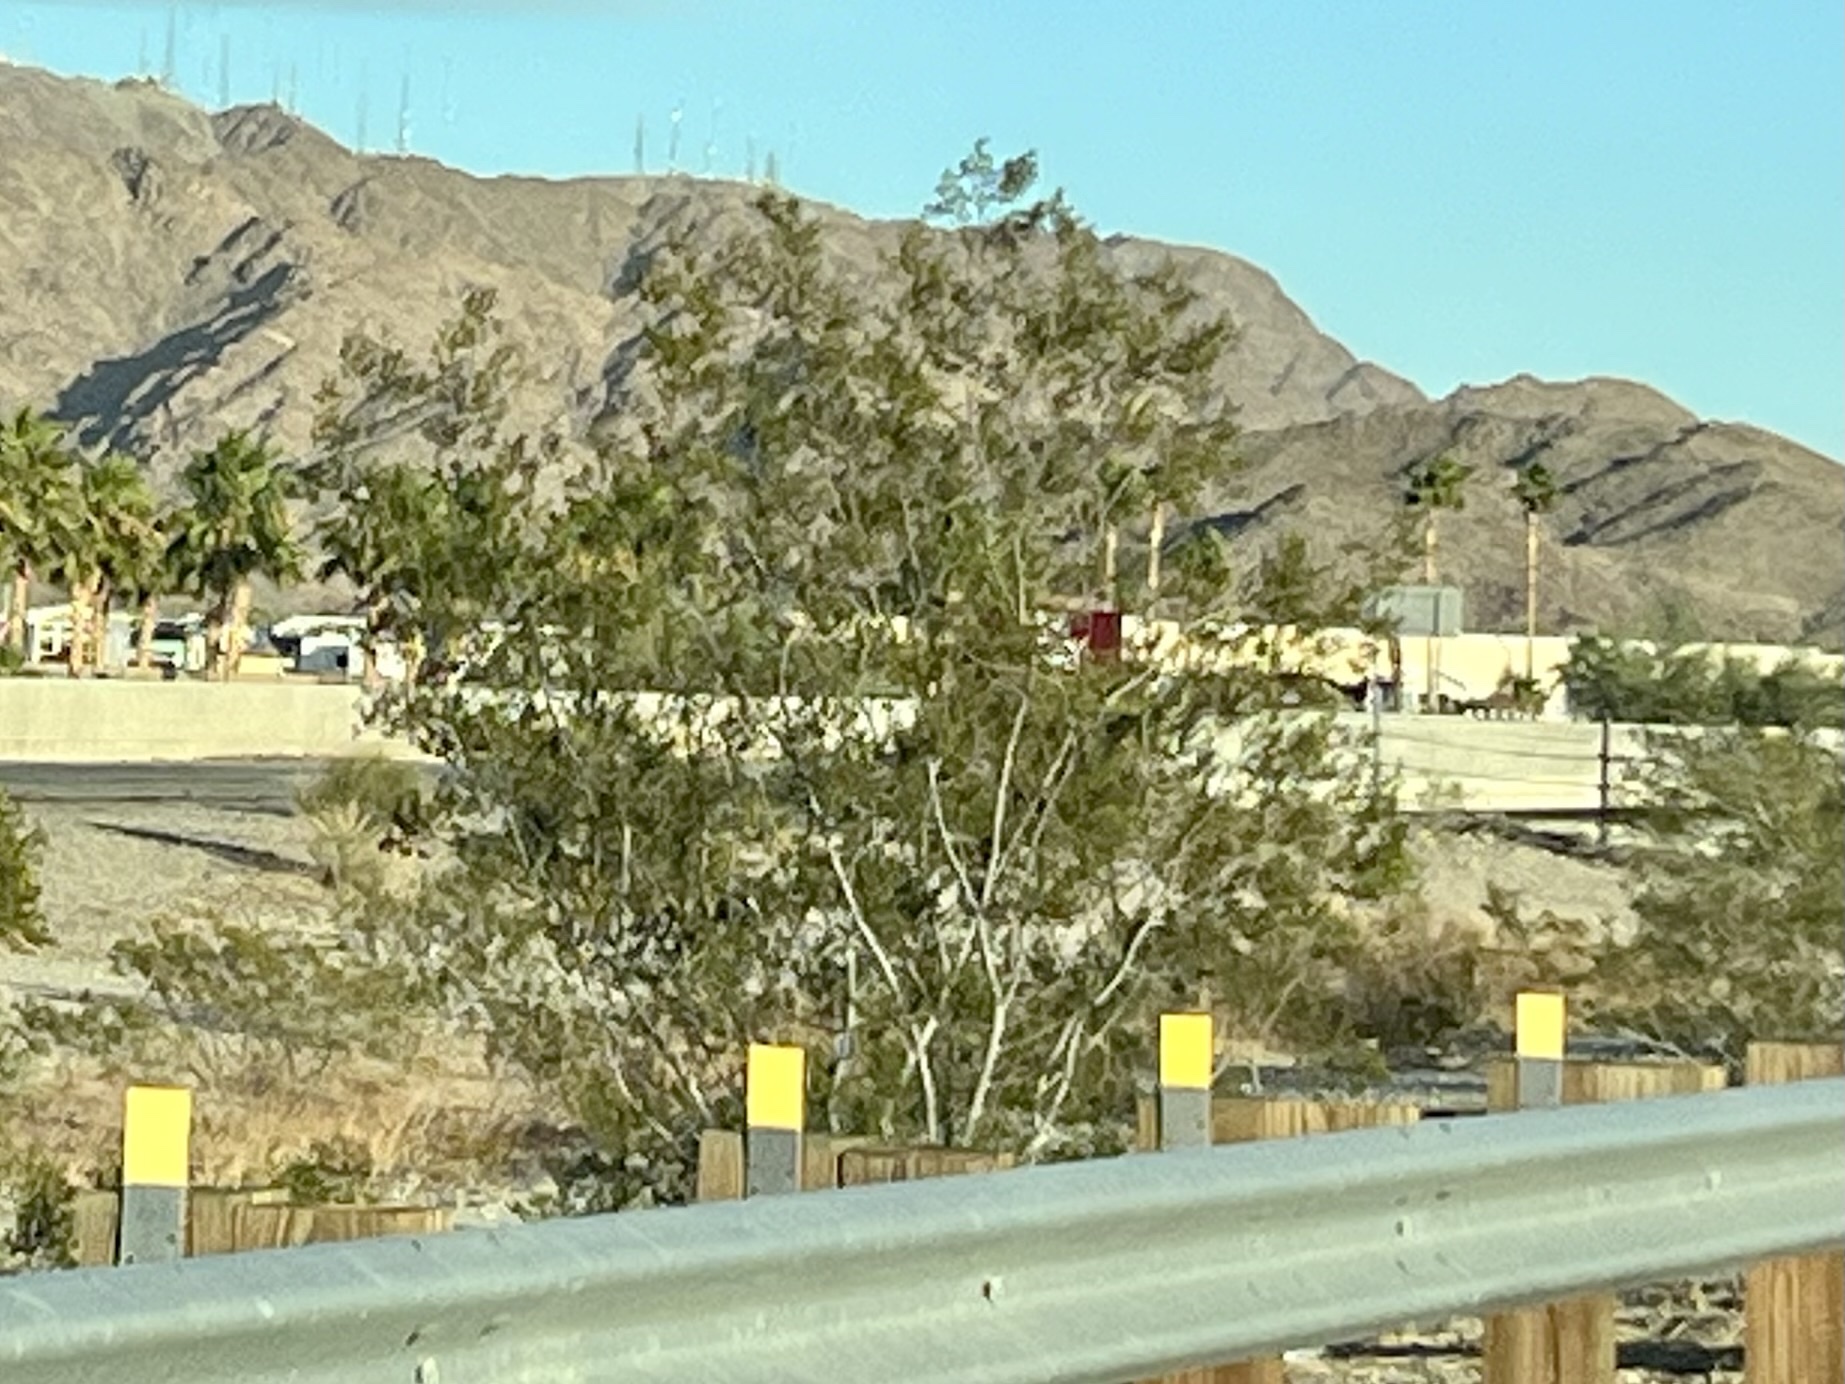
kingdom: Plantae
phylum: Tracheophyta
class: Magnoliopsida
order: Zygophyllales
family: Zygophyllaceae
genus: Larrea
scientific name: Larrea tridentata
